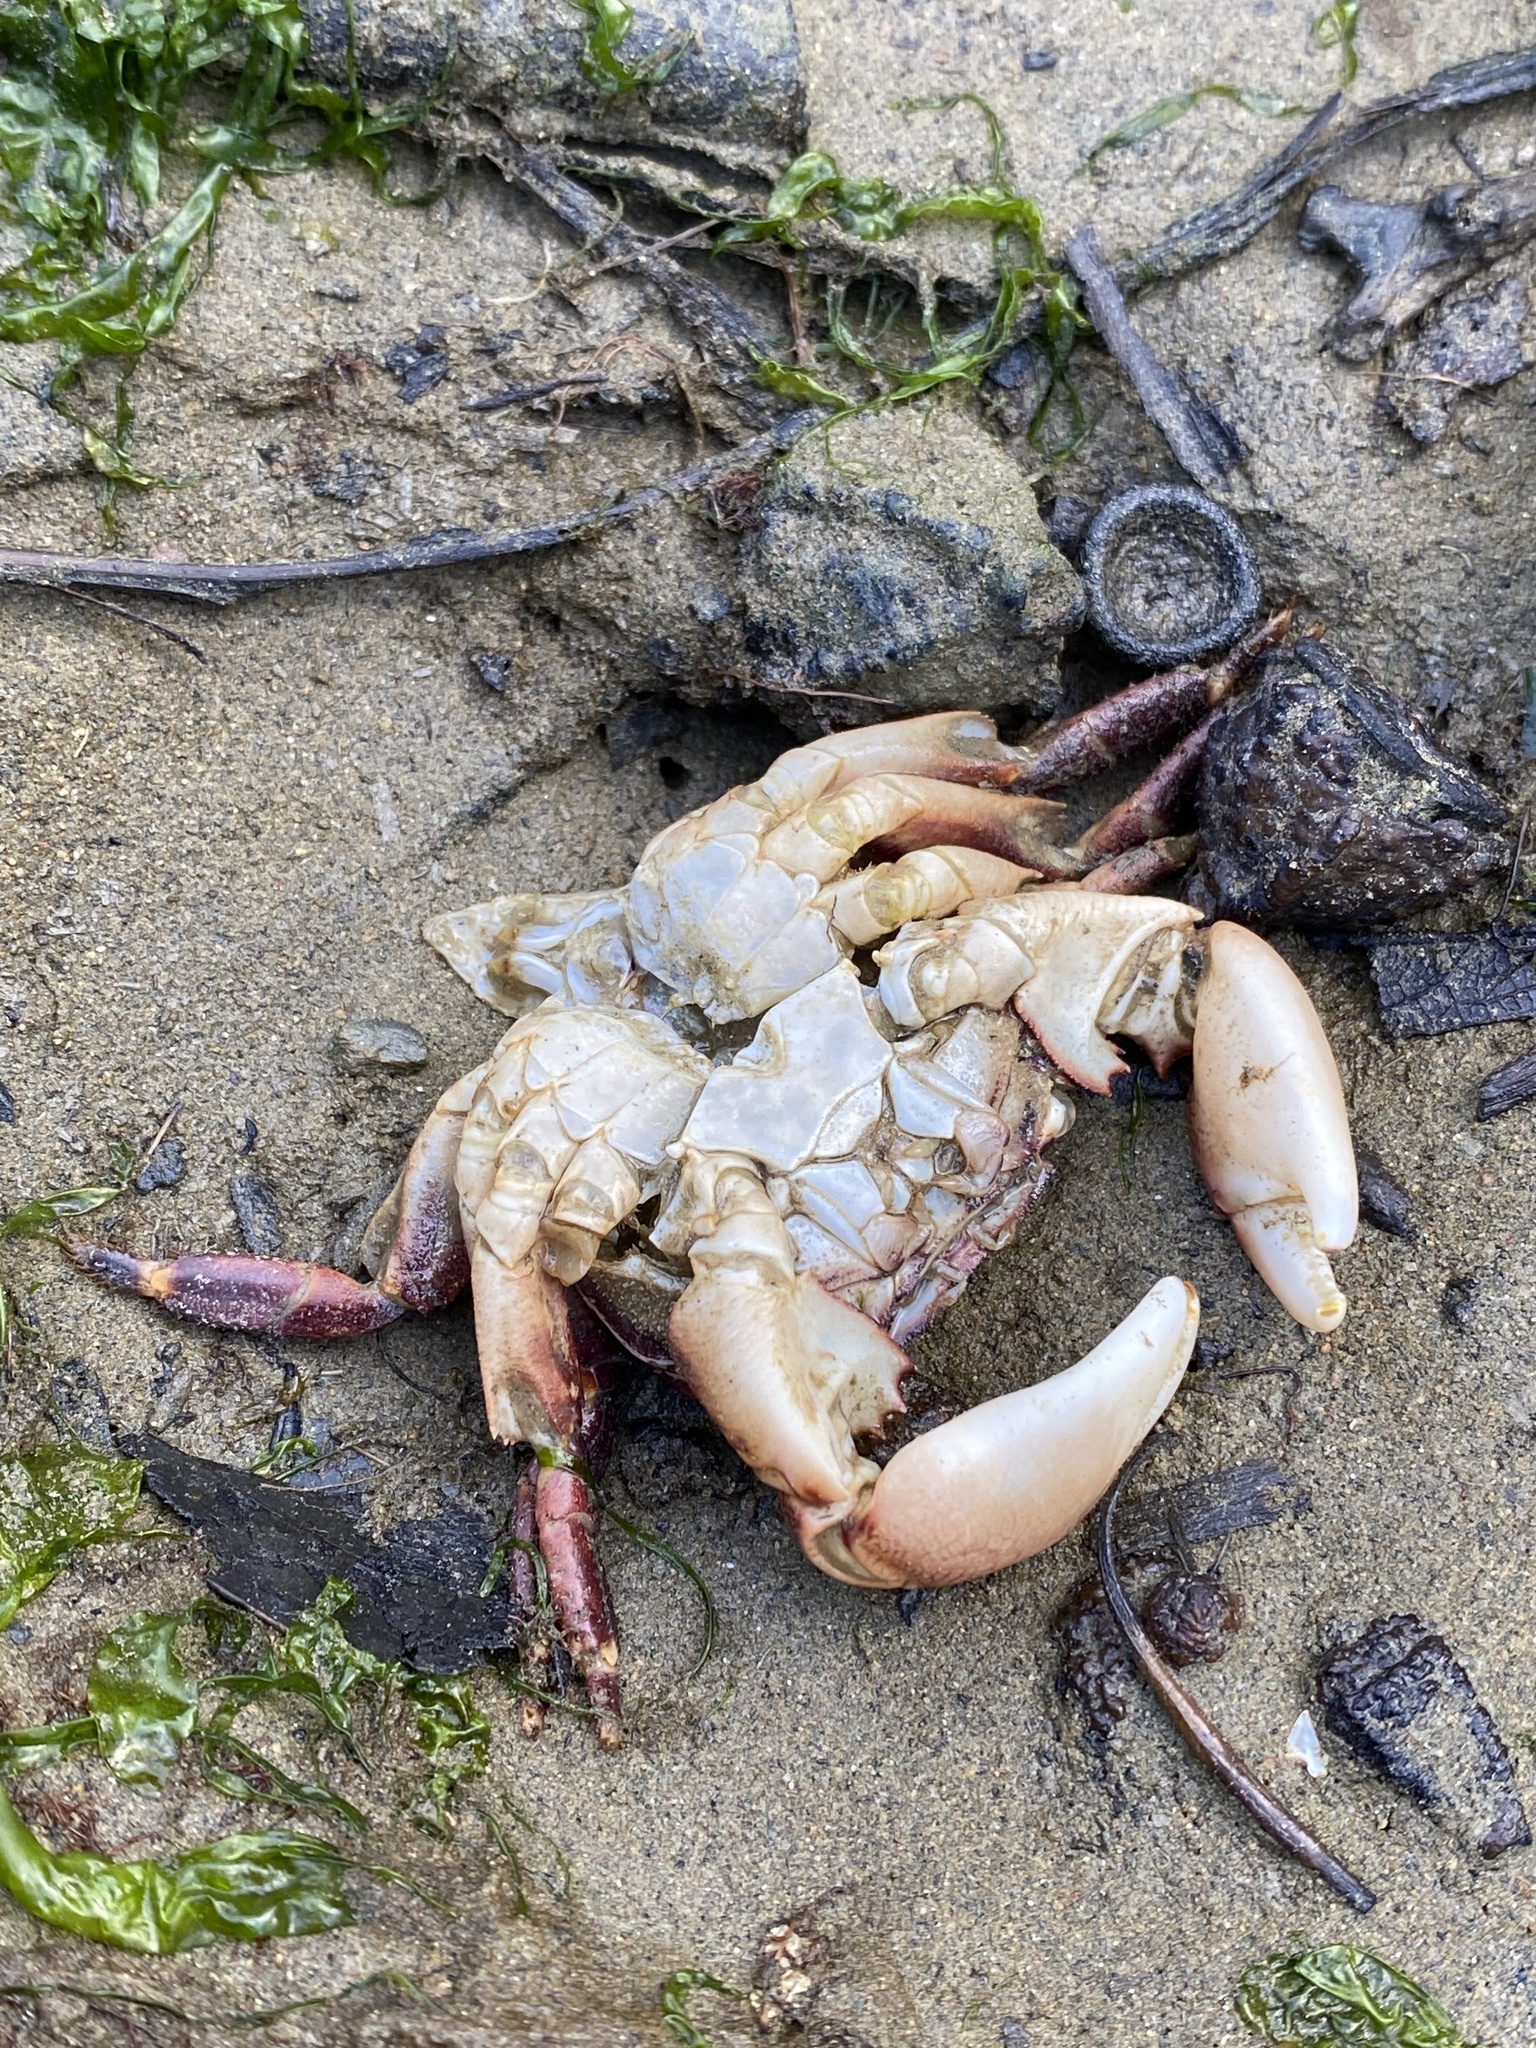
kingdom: Animalia
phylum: Arthropoda
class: Malacostraca
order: Decapoda
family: Grapsidae
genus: Pachygrapsus
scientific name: Pachygrapsus crassipes
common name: Striped shore crab
